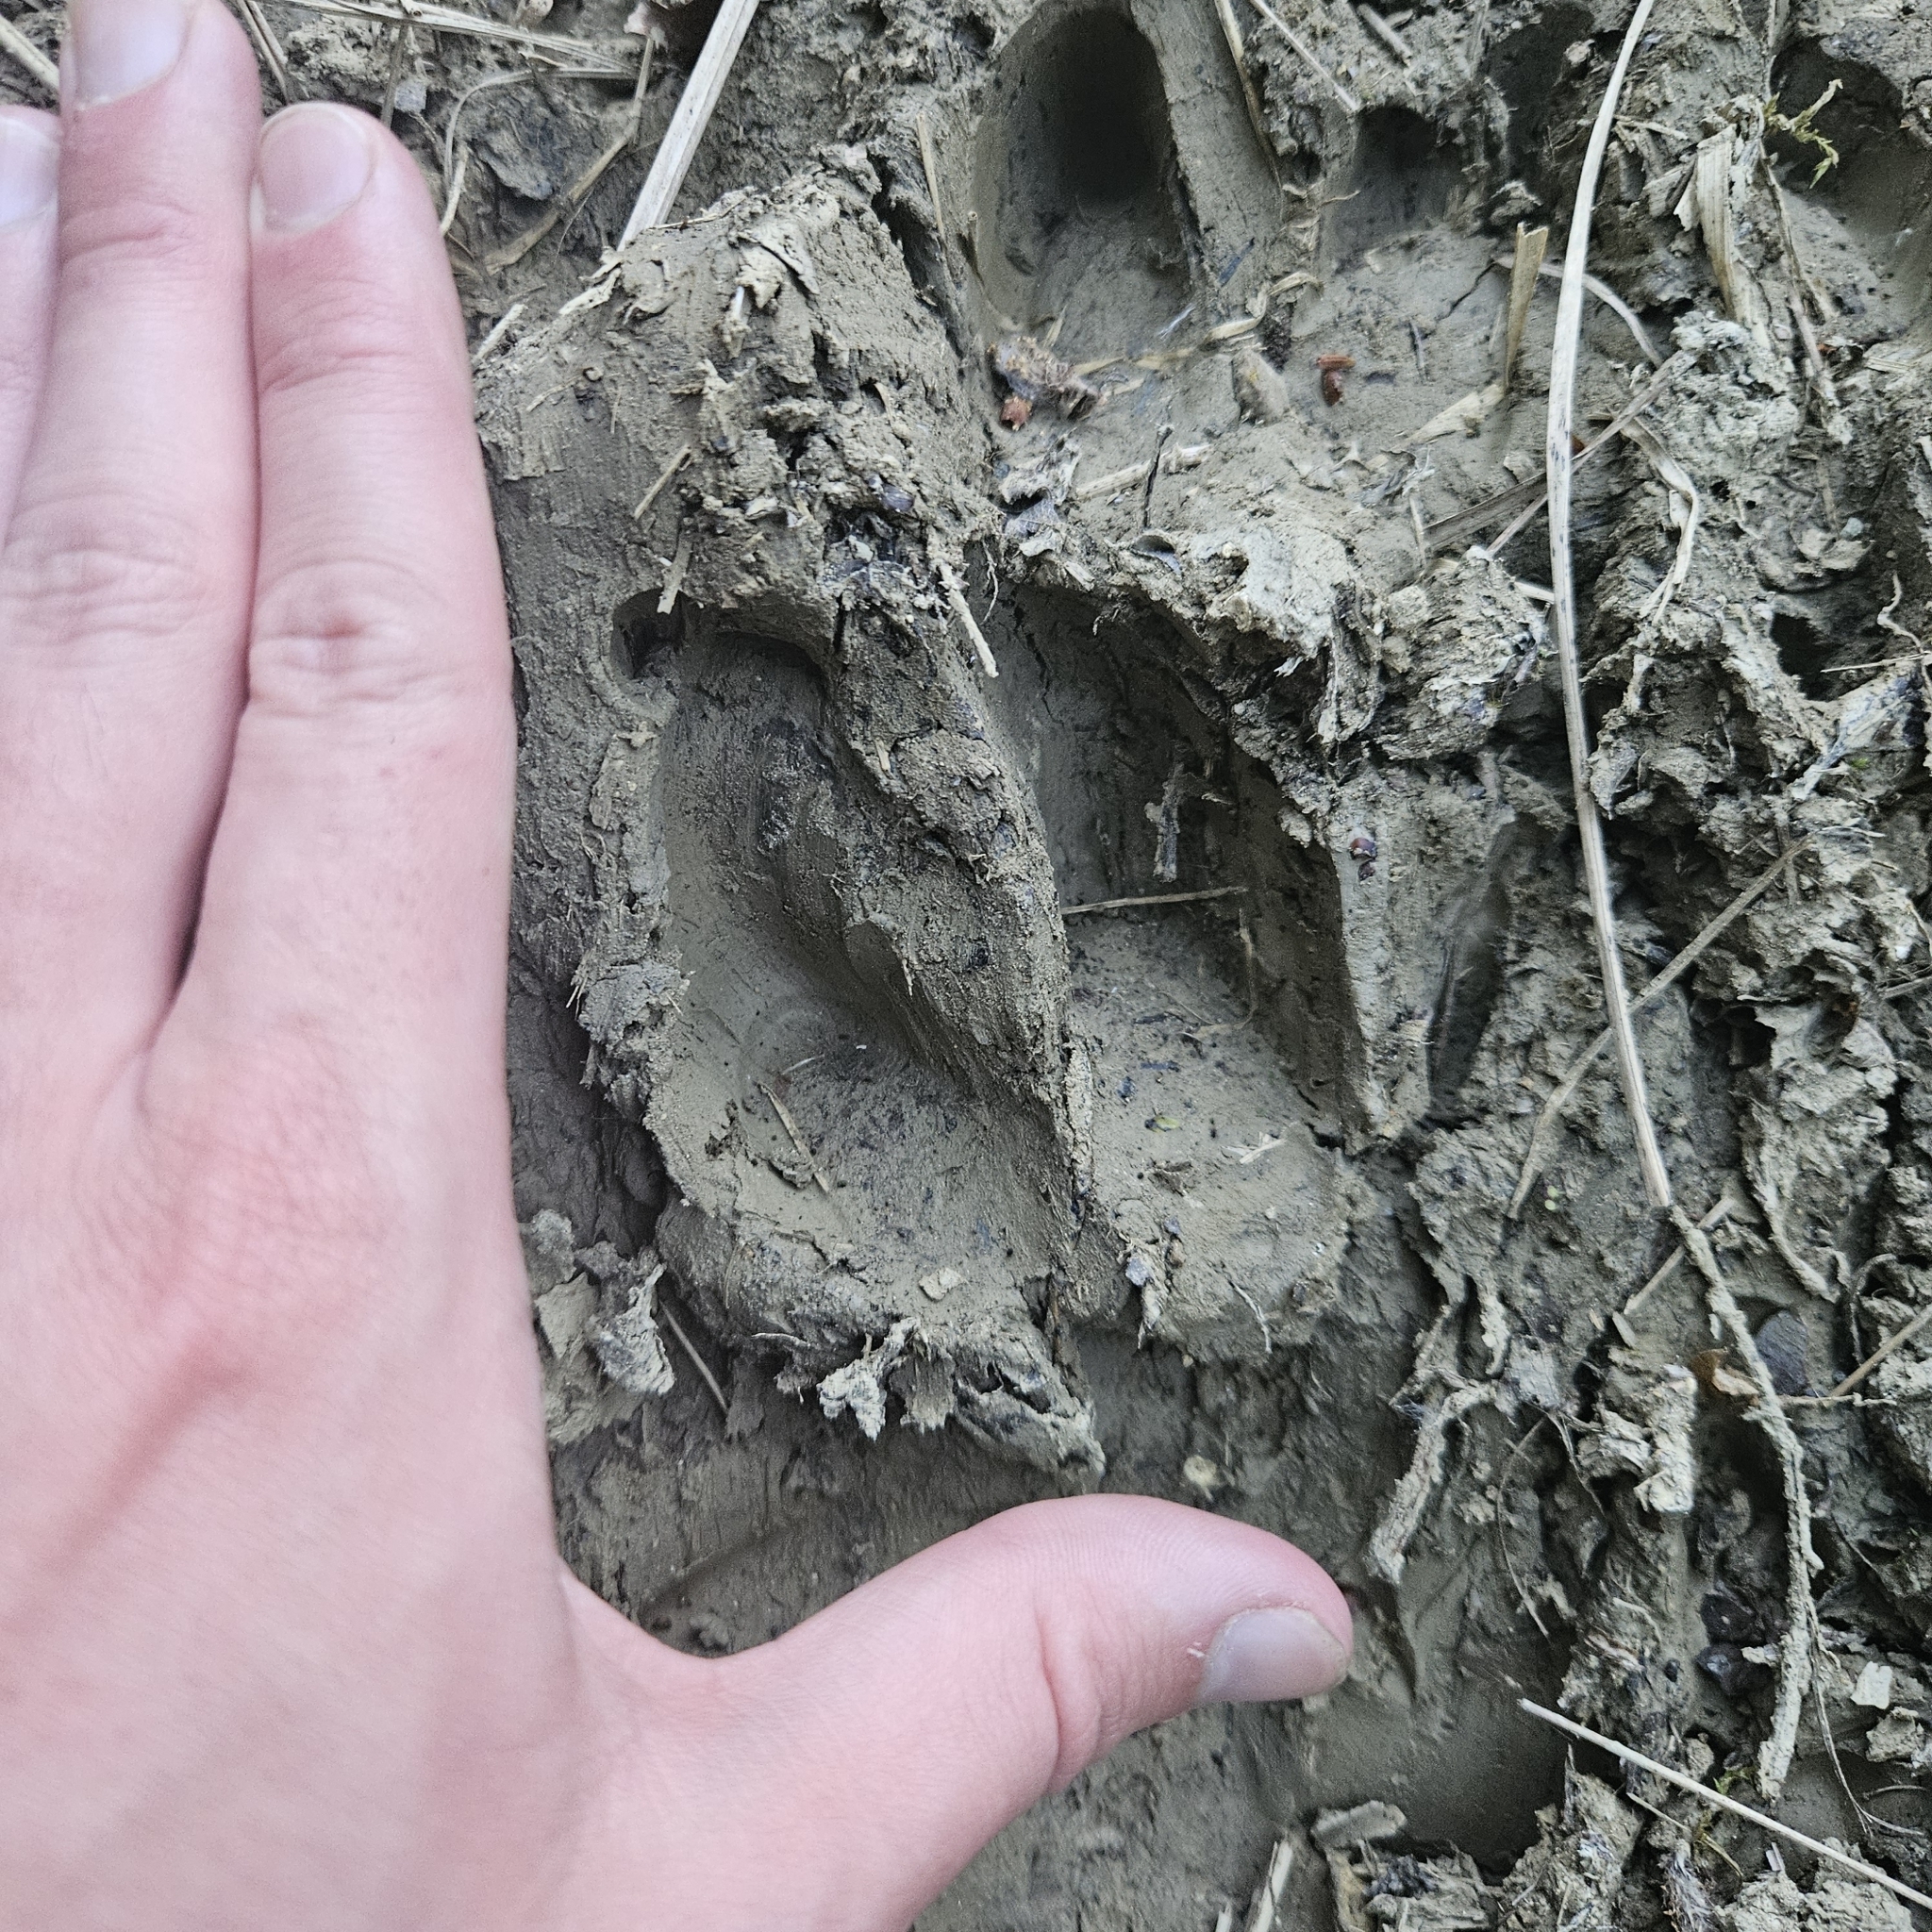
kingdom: Animalia
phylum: Chordata
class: Mammalia
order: Artiodactyla
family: Suidae
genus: Sus
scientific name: Sus scrofa
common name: Wild boar
